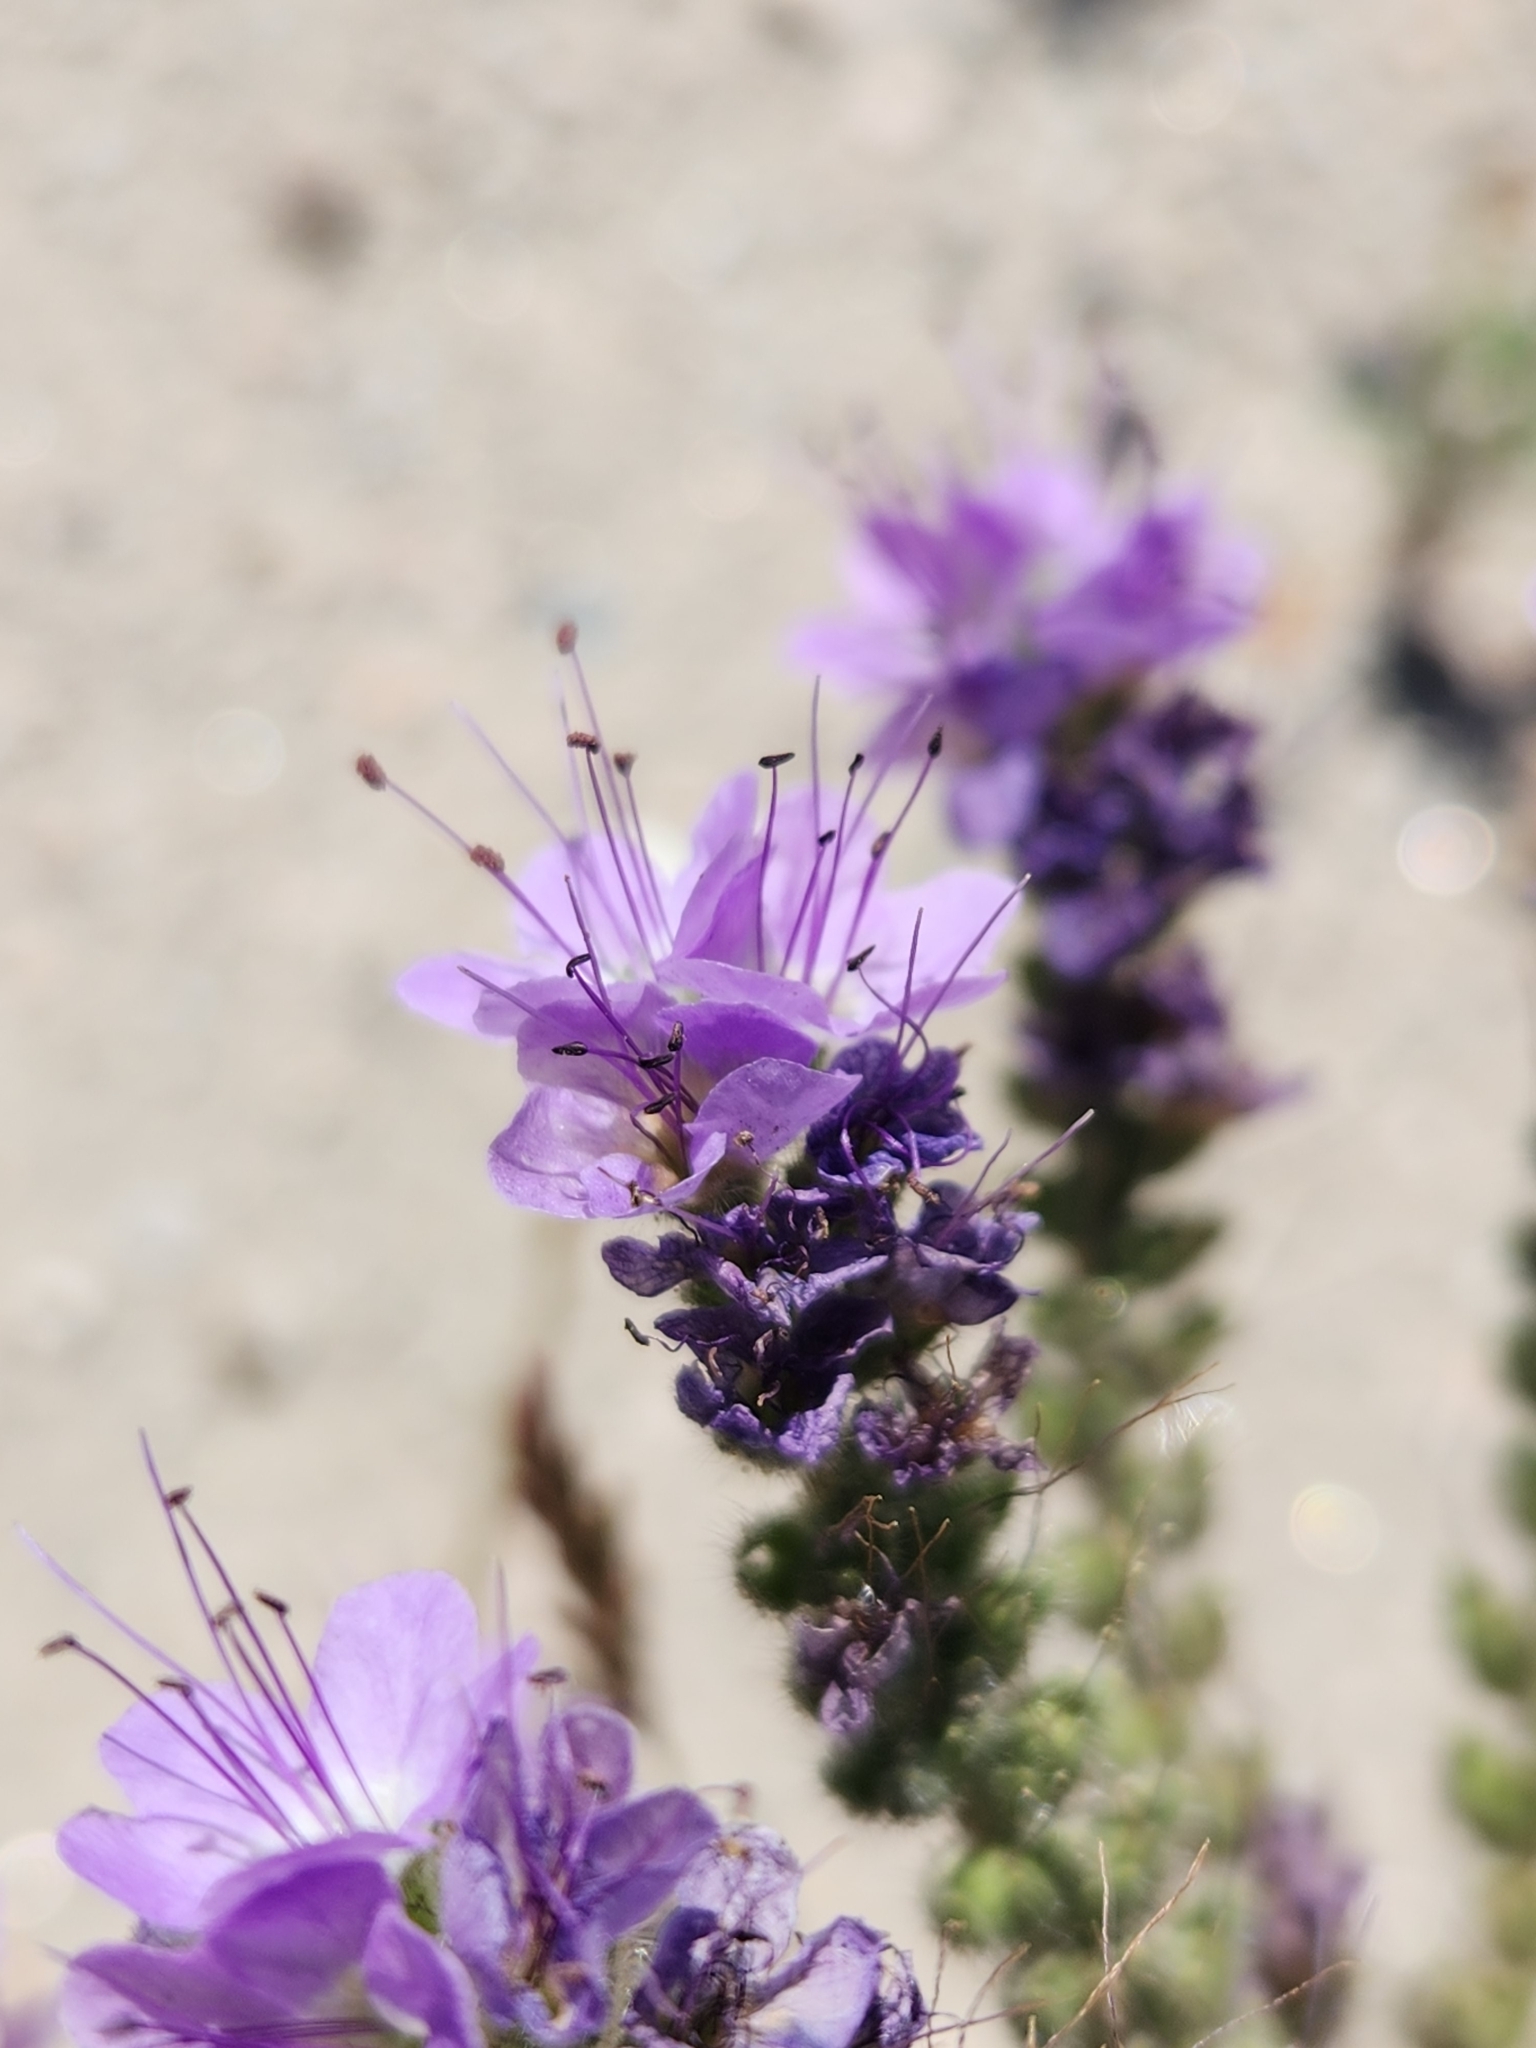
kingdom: Plantae
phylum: Tracheophyta
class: Magnoliopsida
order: Boraginales
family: Hydrophyllaceae
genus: Phacelia
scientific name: Phacelia crenulata
